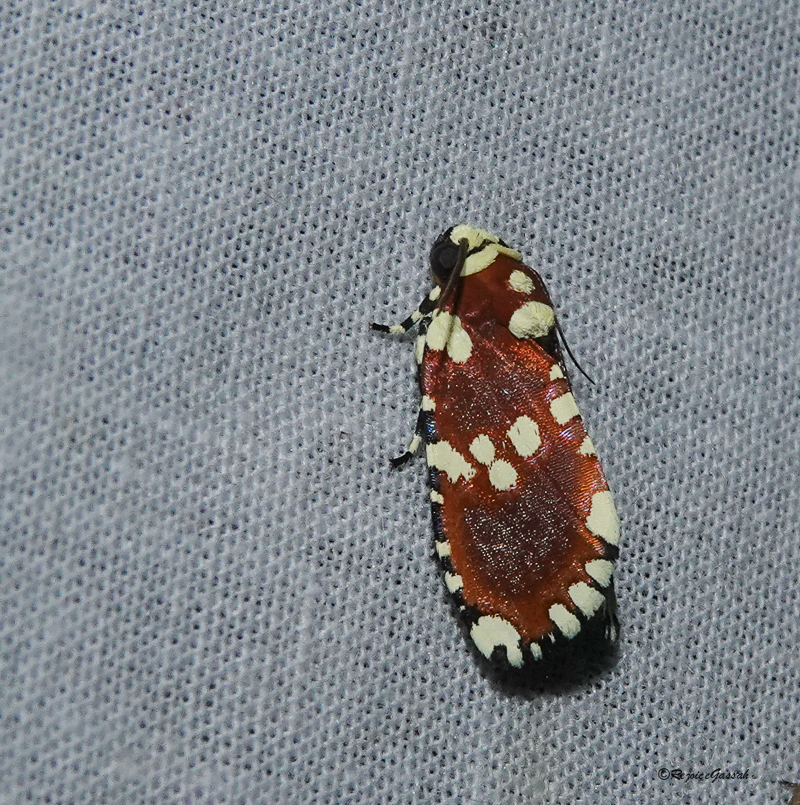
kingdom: Animalia
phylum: Arthropoda
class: Insecta
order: Lepidoptera
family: Noctuidae
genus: Yepcalphis
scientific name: Yepcalphis dilectissima
